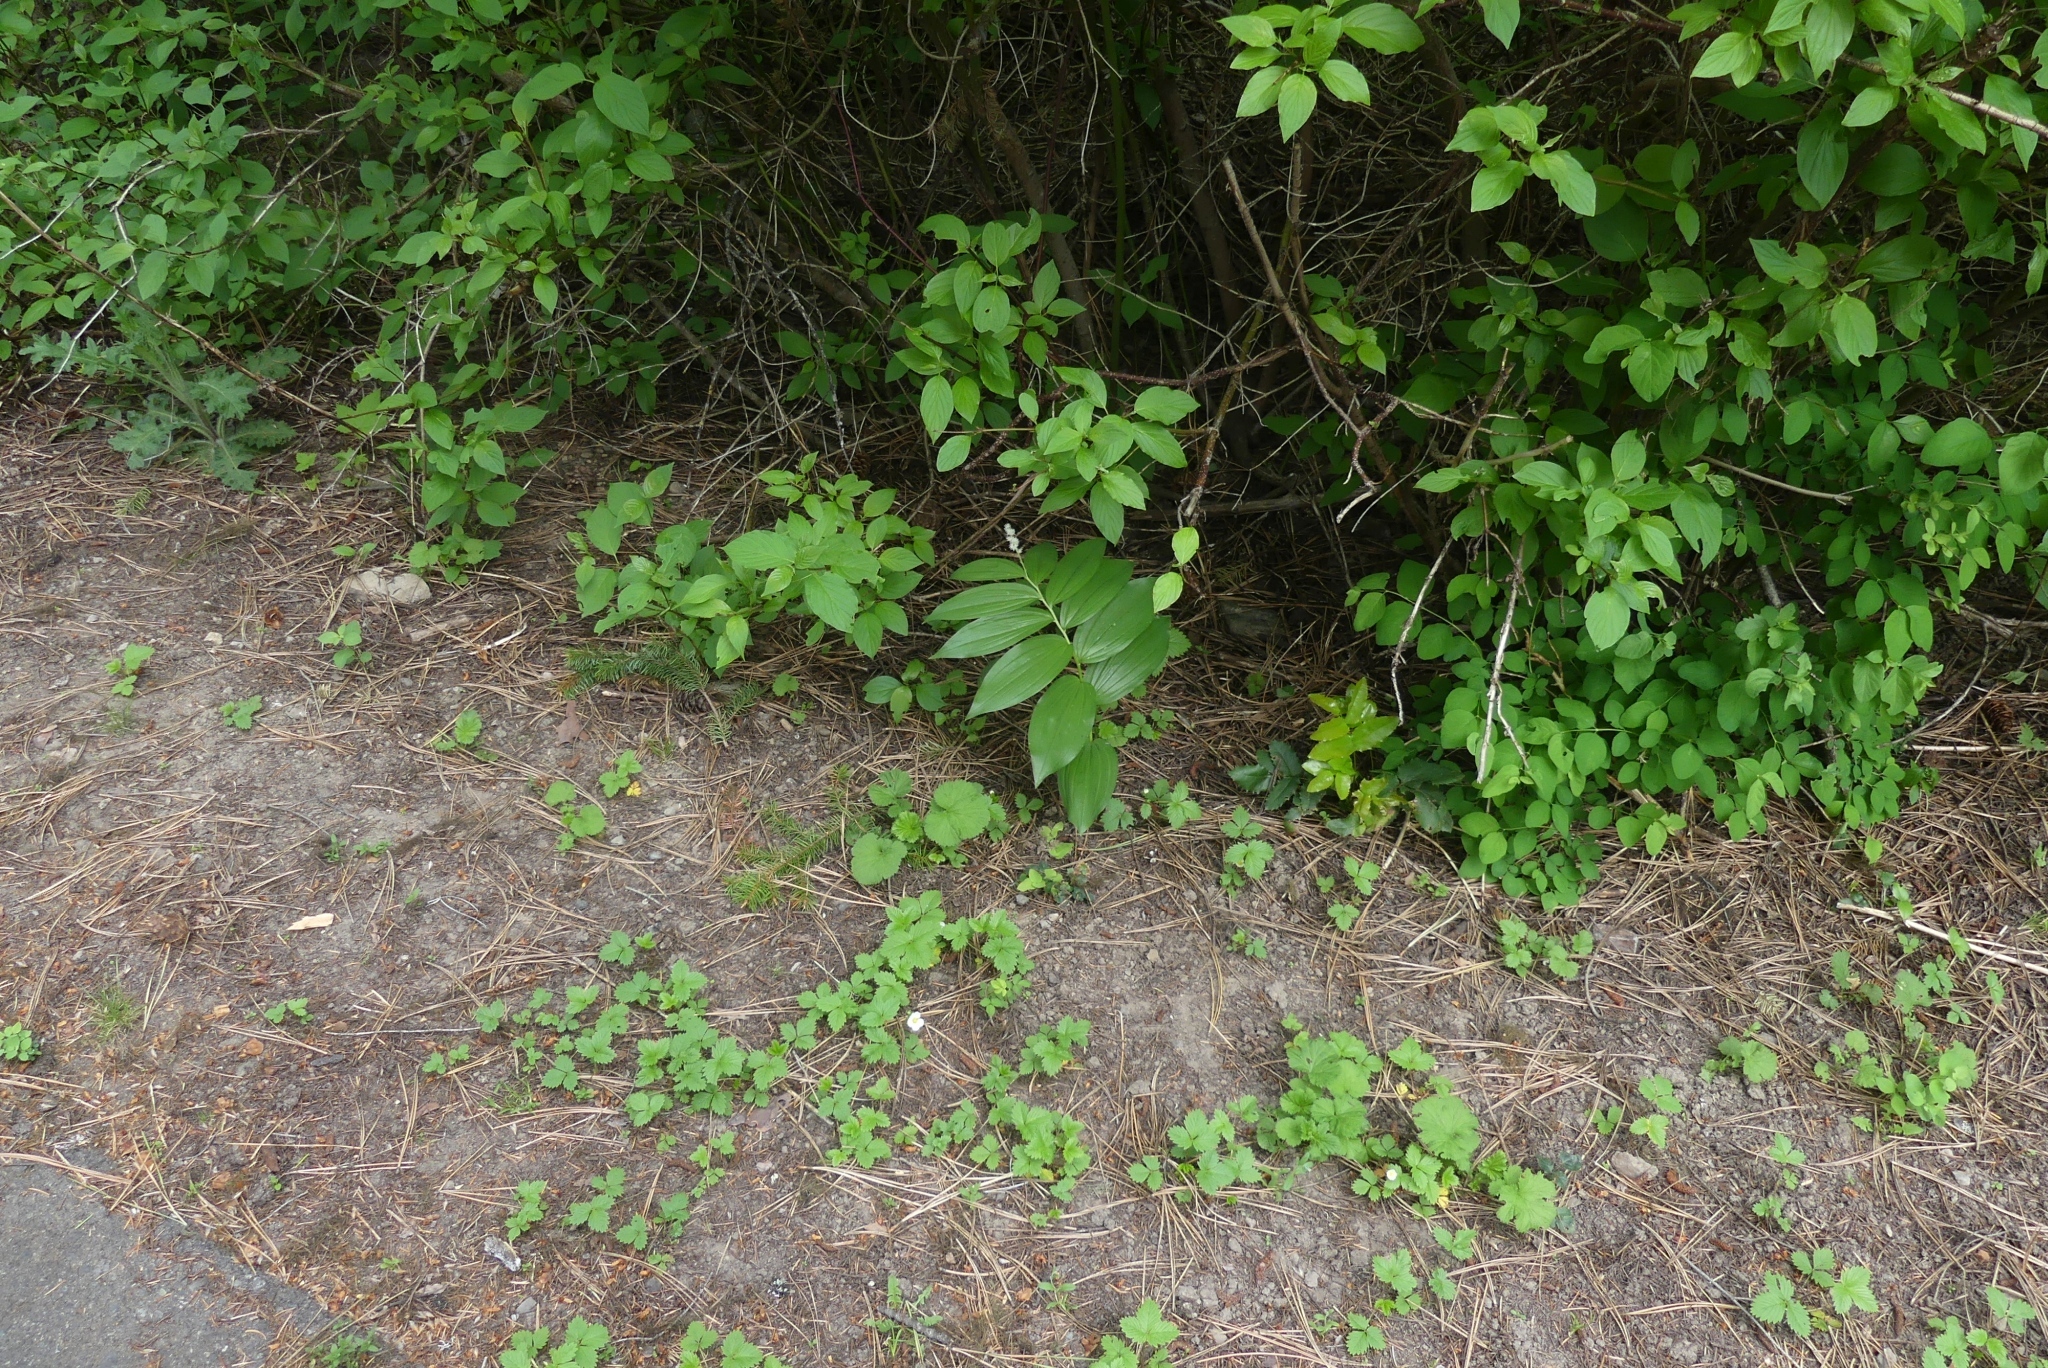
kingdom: Plantae
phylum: Tracheophyta
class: Liliopsida
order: Asparagales
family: Asparagaceae
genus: Maianthemum
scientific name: Maianthemum racemosum
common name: False spikenard
